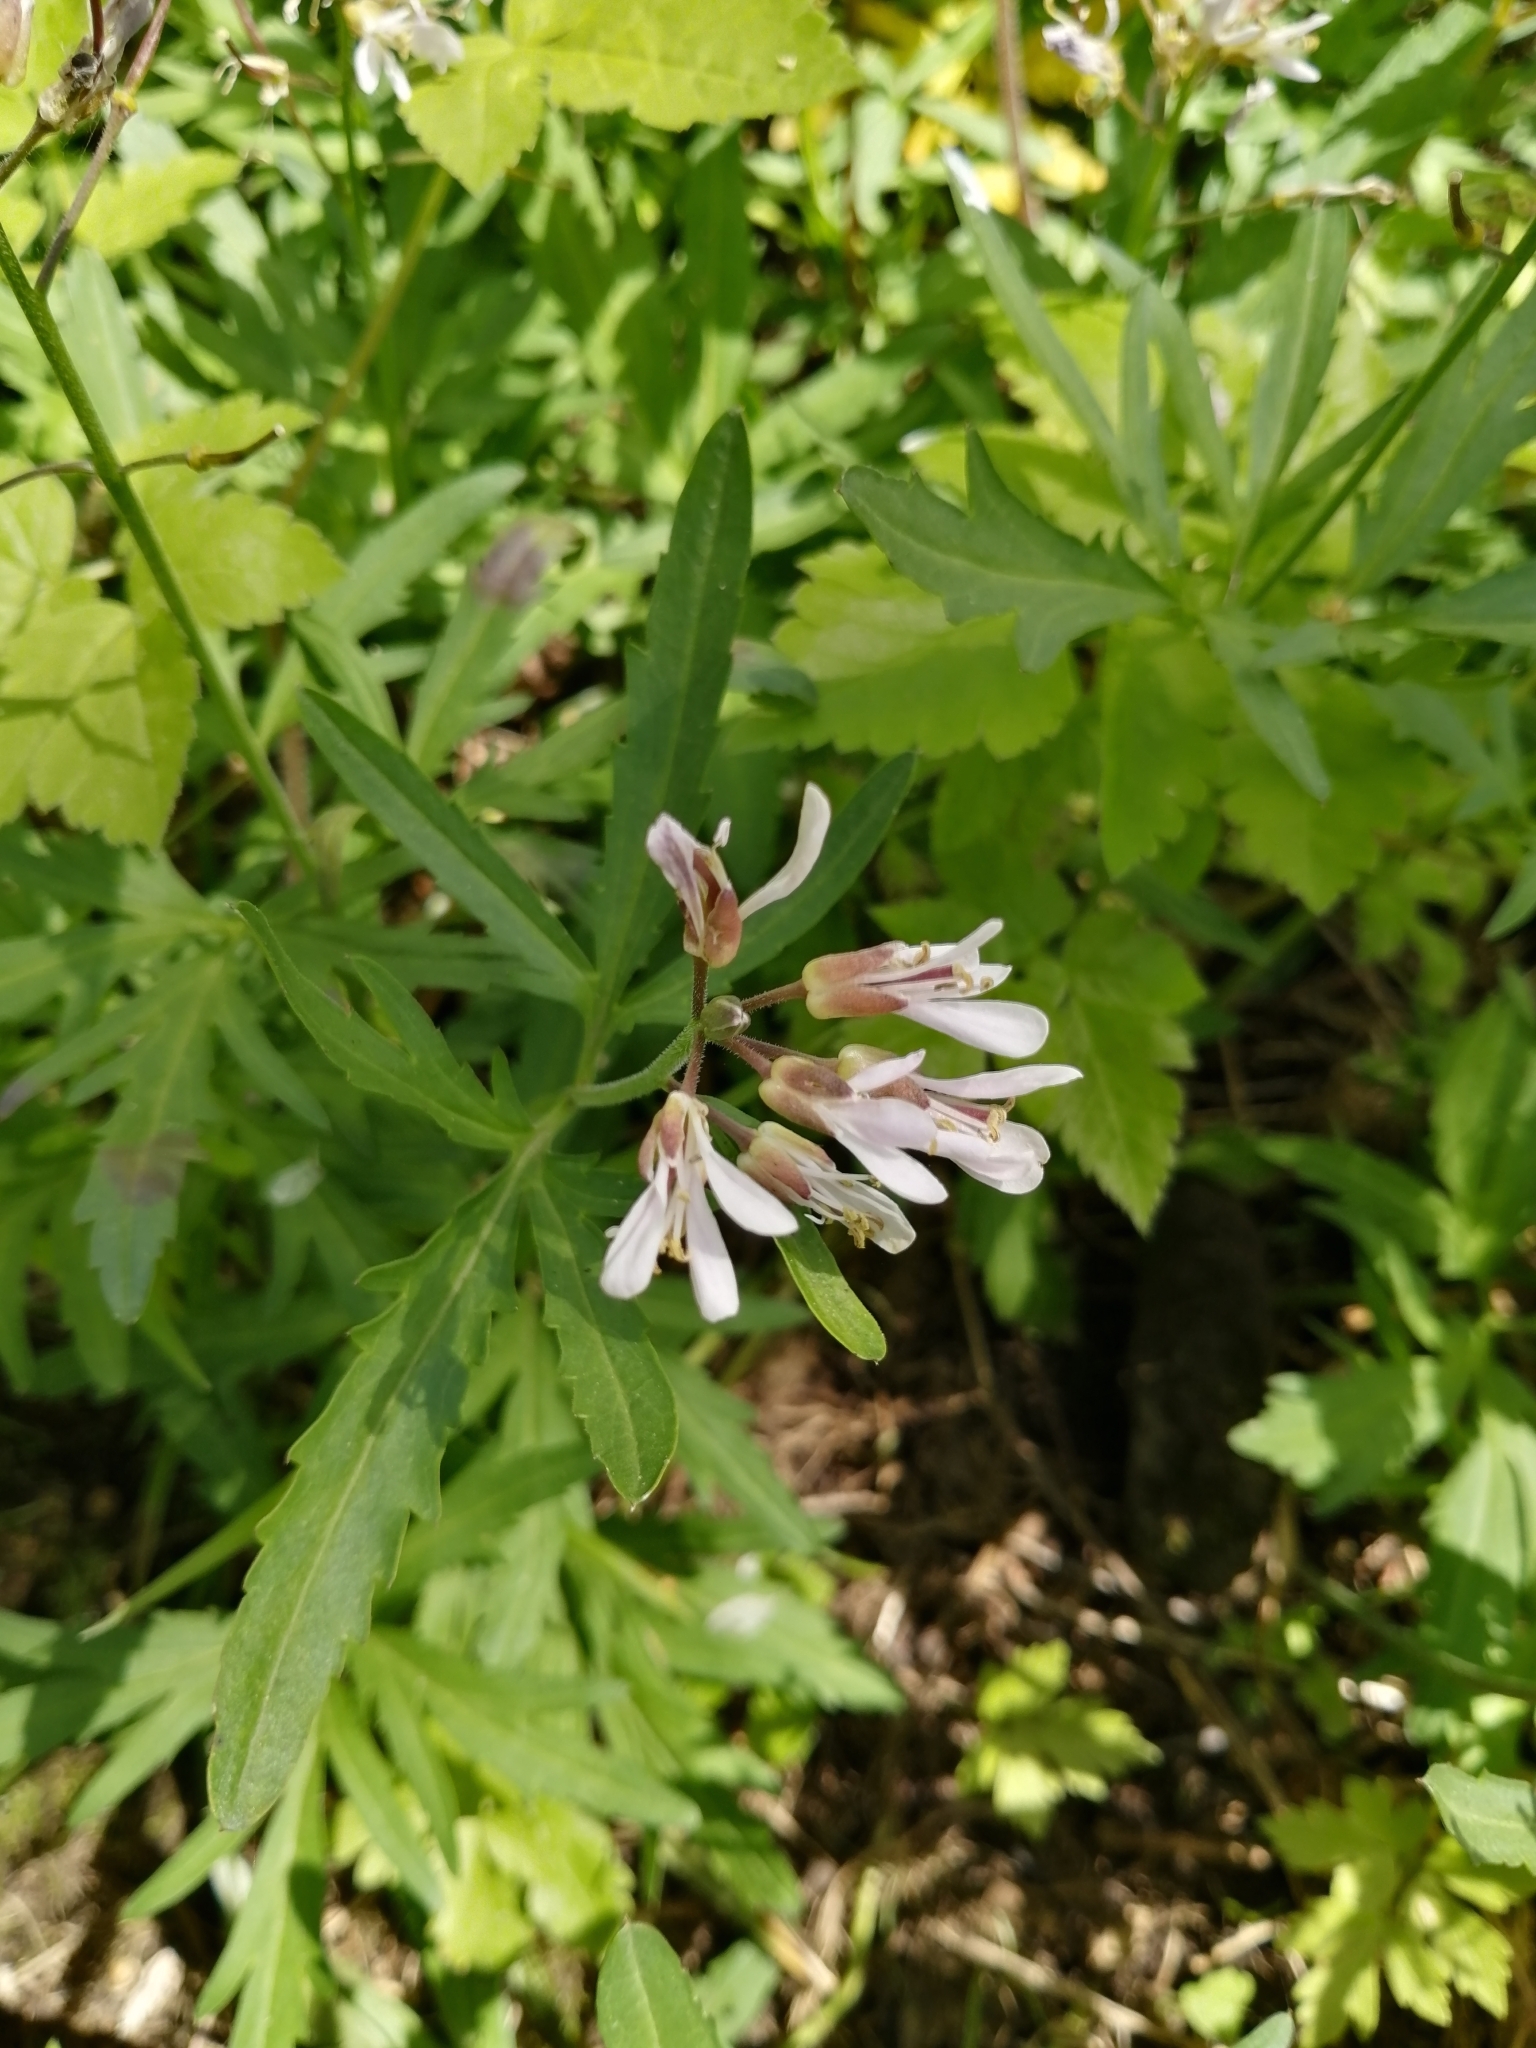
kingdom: Plantae
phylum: Tracheophyta
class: Magnoliopsida
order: Brassicales
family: Brassicaceae
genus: Cardamine
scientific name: Cardamine concatenata
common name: Cut-leaf toothcup
